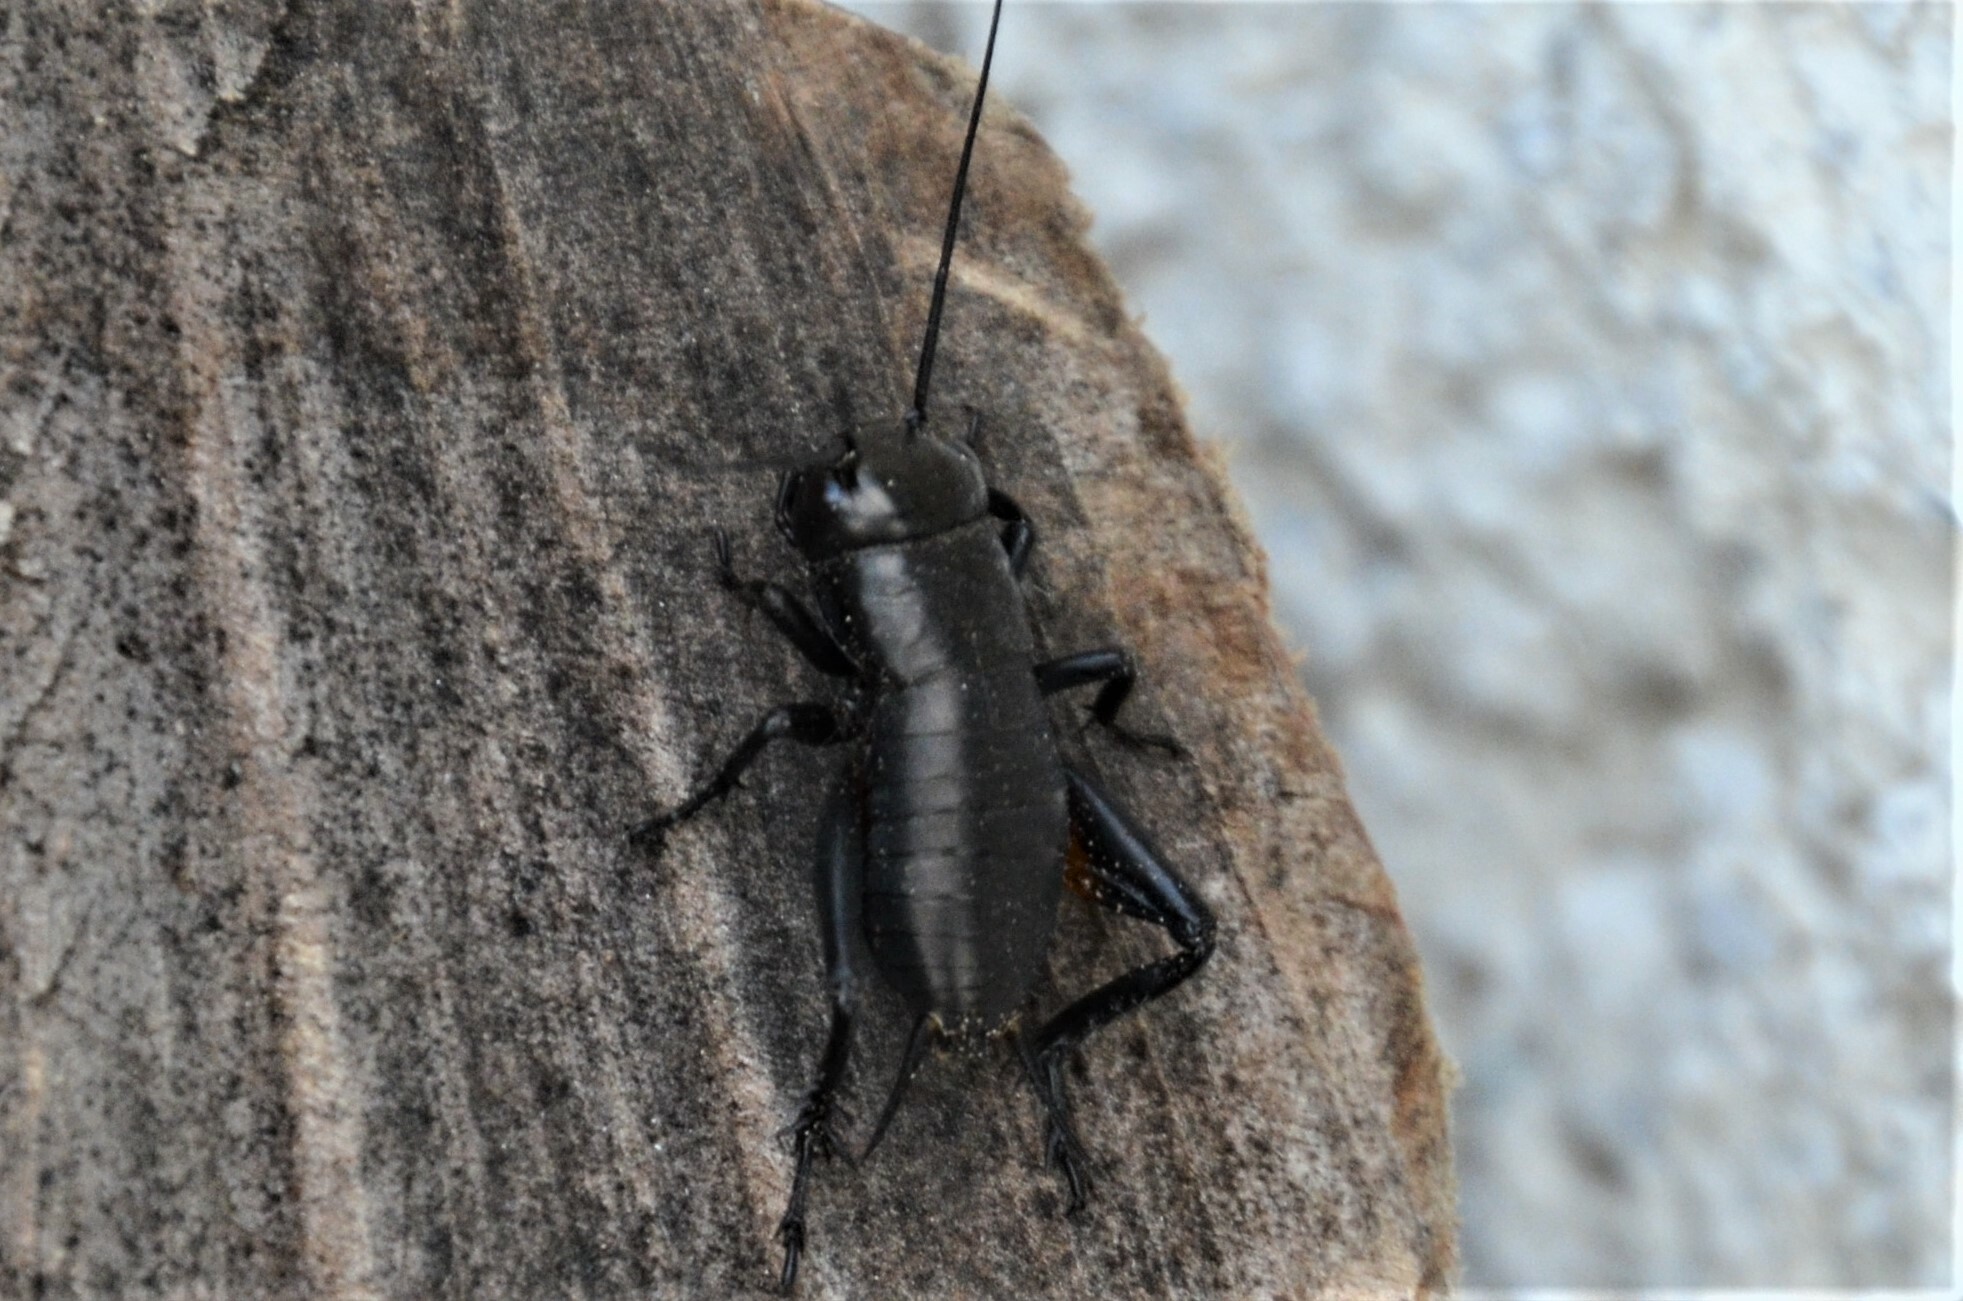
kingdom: Animalia
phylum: Arthropoda
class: Insecta
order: Orthoptera
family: Gryllidae
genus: Gryllus
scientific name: Gryllus campestris
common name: Field cricket
